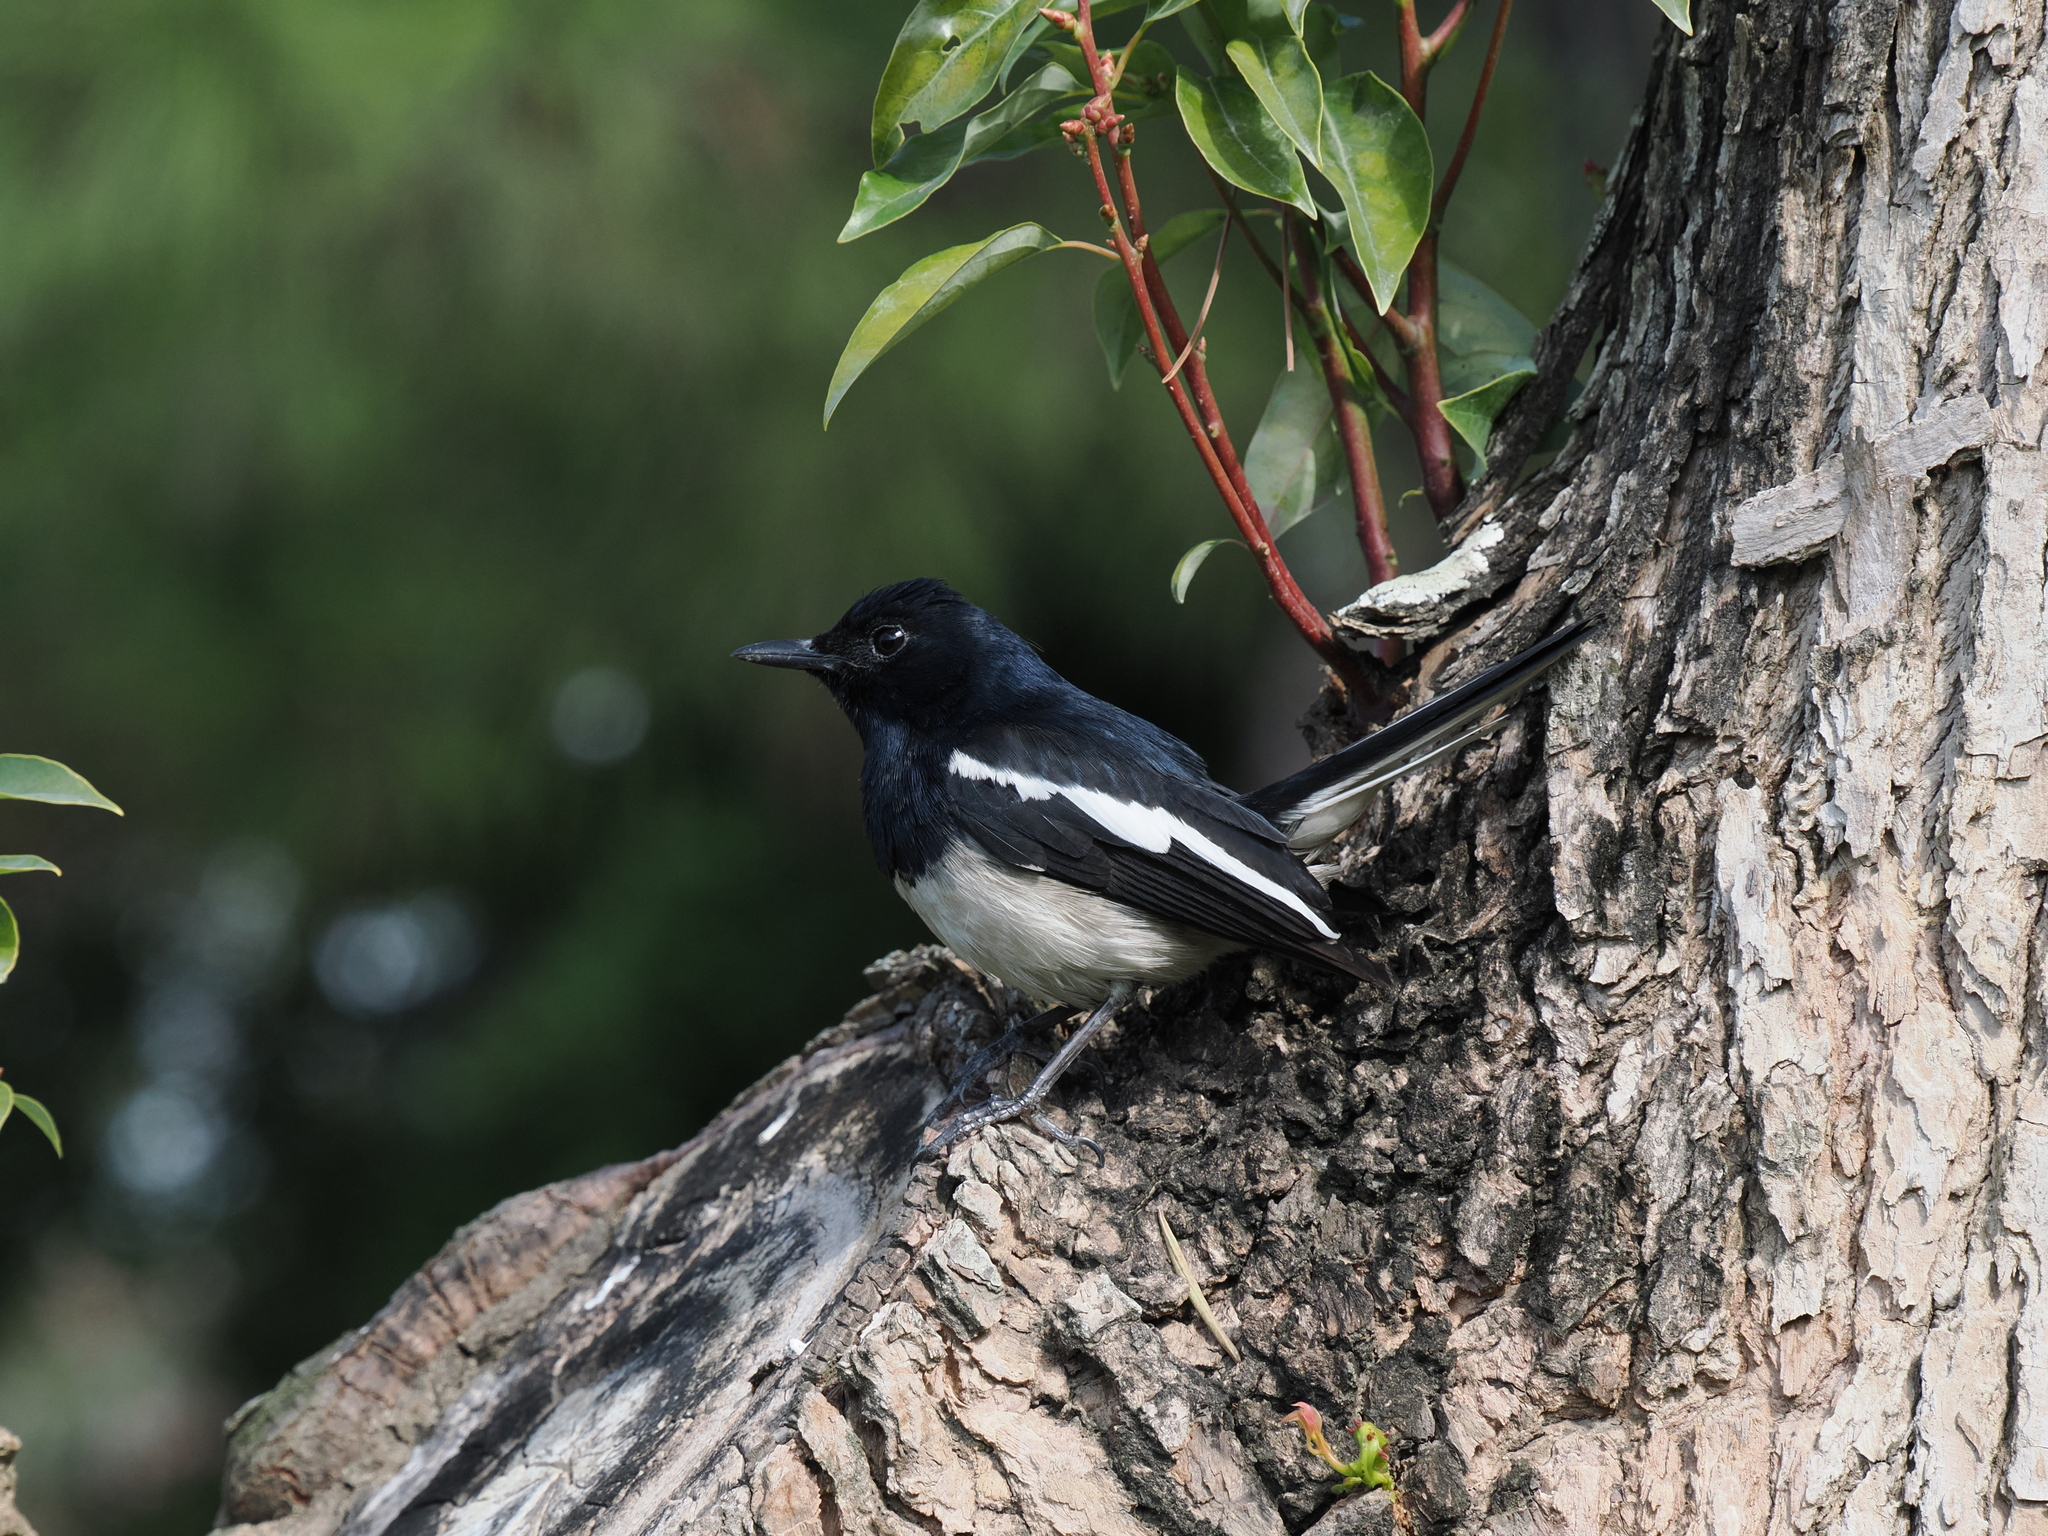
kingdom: Animalia
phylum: Chordata
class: Aves
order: Passeriformes
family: Muscicapidae
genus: Copsychus
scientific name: Copsychus saularis
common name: Oriental magpie-robin
